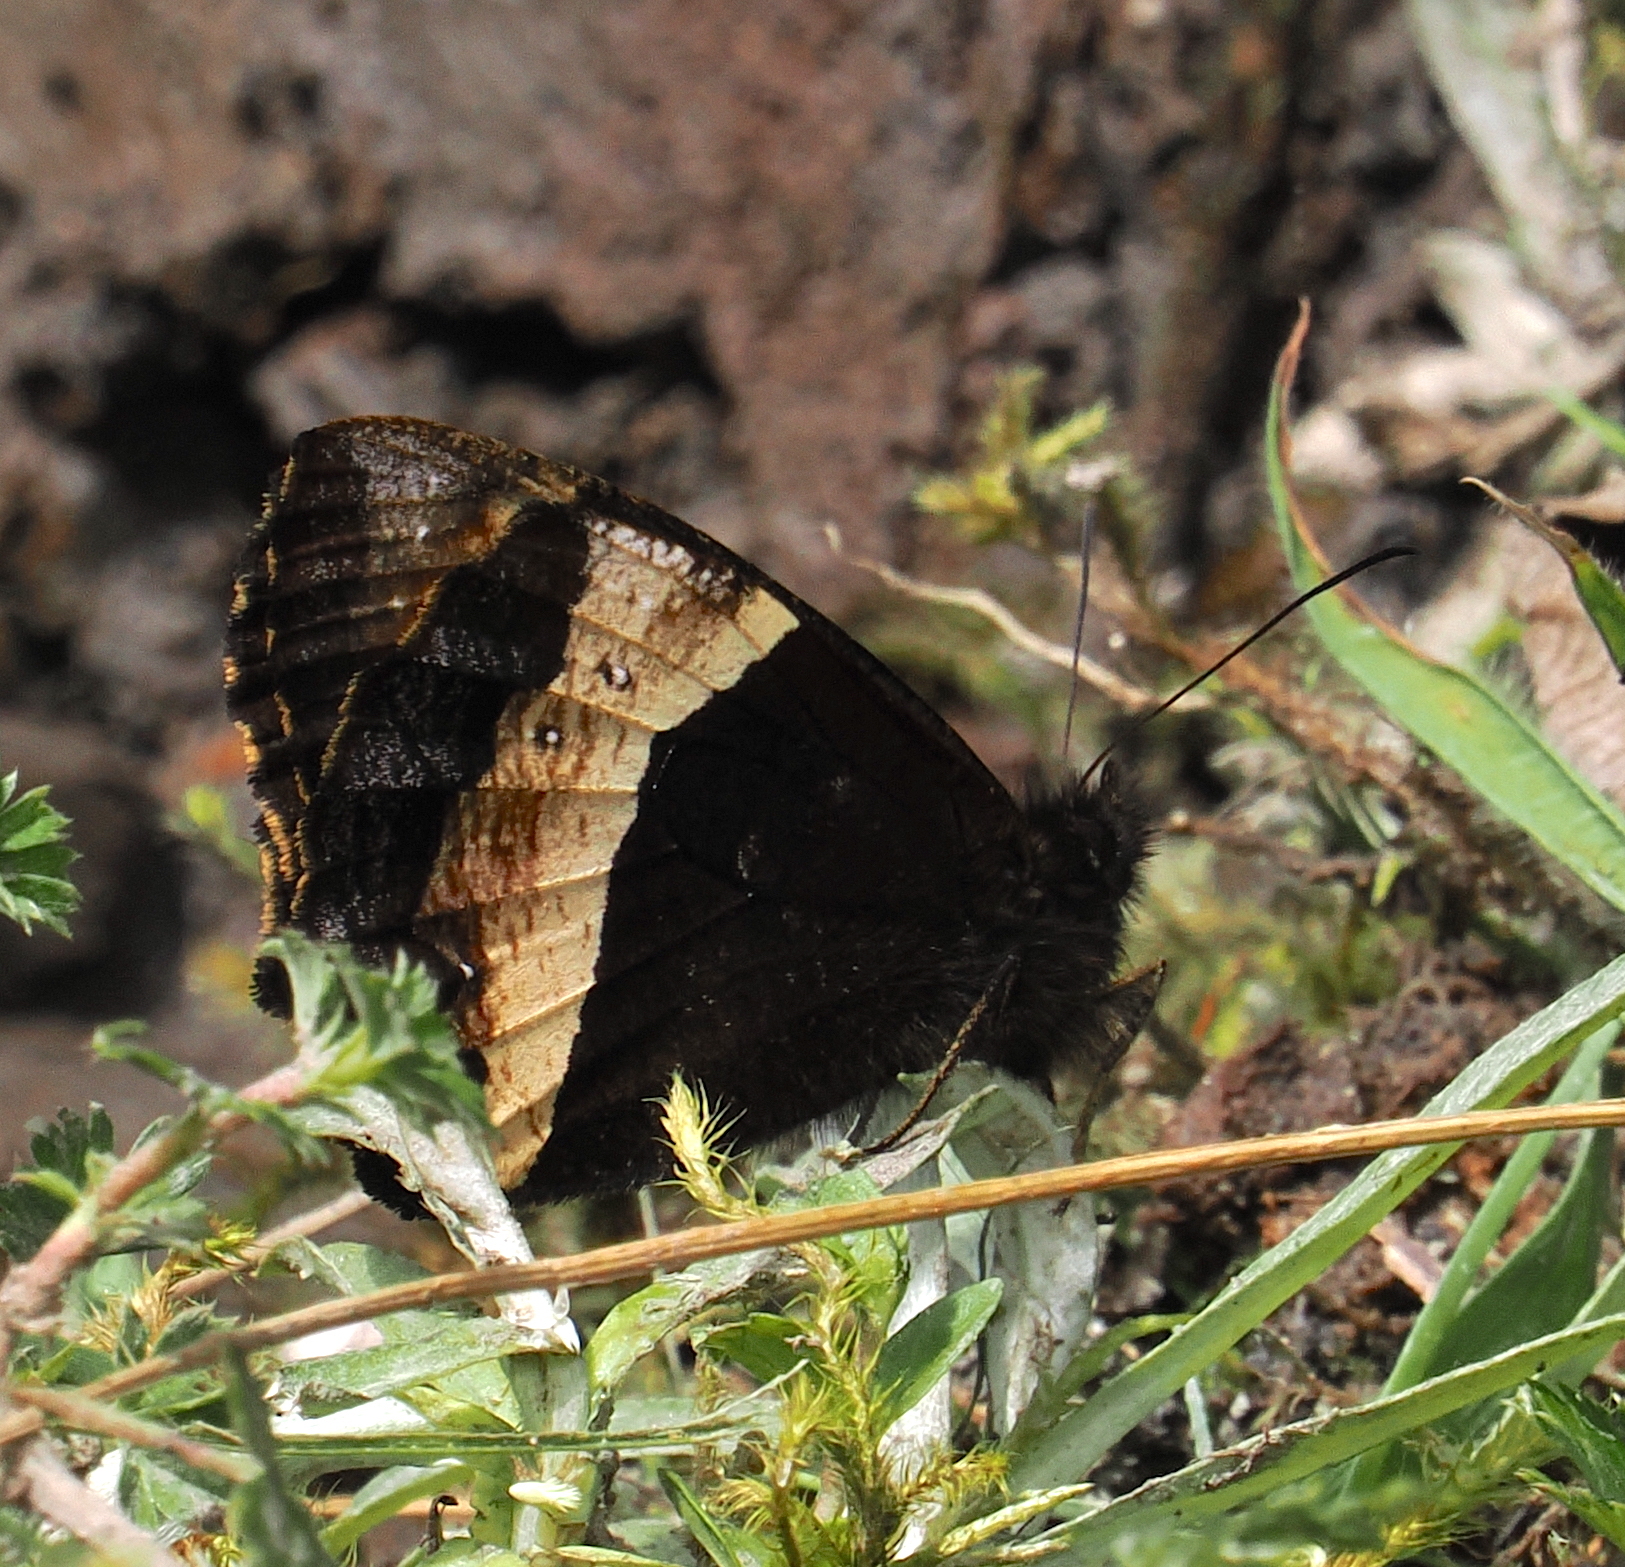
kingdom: Animalia
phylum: Arthropoda
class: Insecta
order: Lepidoptera
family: Nymphalidae
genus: Pedaliodes
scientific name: Pedaliodes wilhelmi
